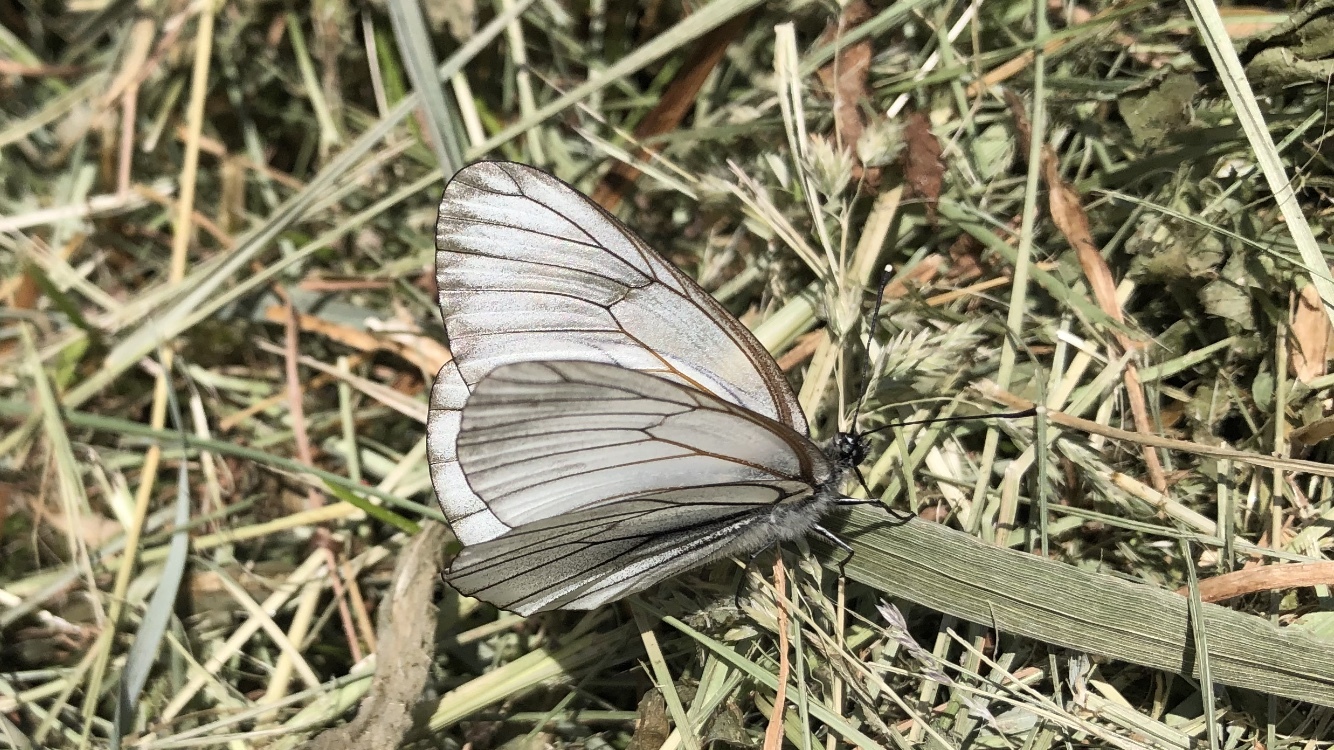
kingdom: Animalia
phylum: Arthropoda
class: Insecta
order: Lepidoptera
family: Pieridae
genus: Aporia
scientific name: Aporia crataegi
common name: Black-veined white
